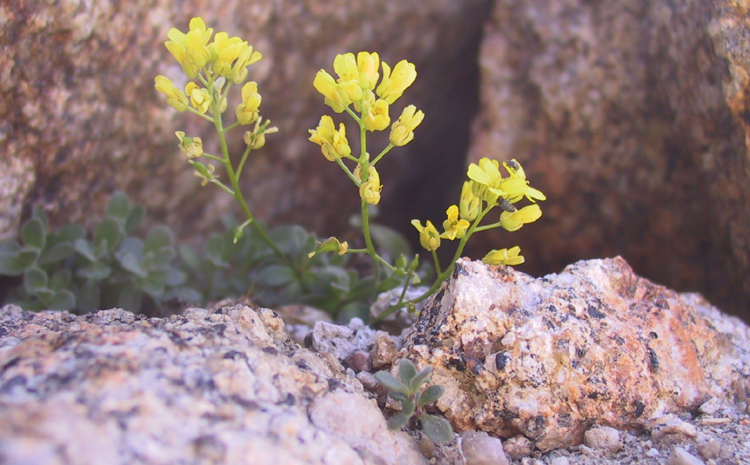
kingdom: Plantae
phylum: Tracheophyta
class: Magnoliopsida
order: Brassicales
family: Brassicaceae
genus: Draba
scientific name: Draba asterophora
